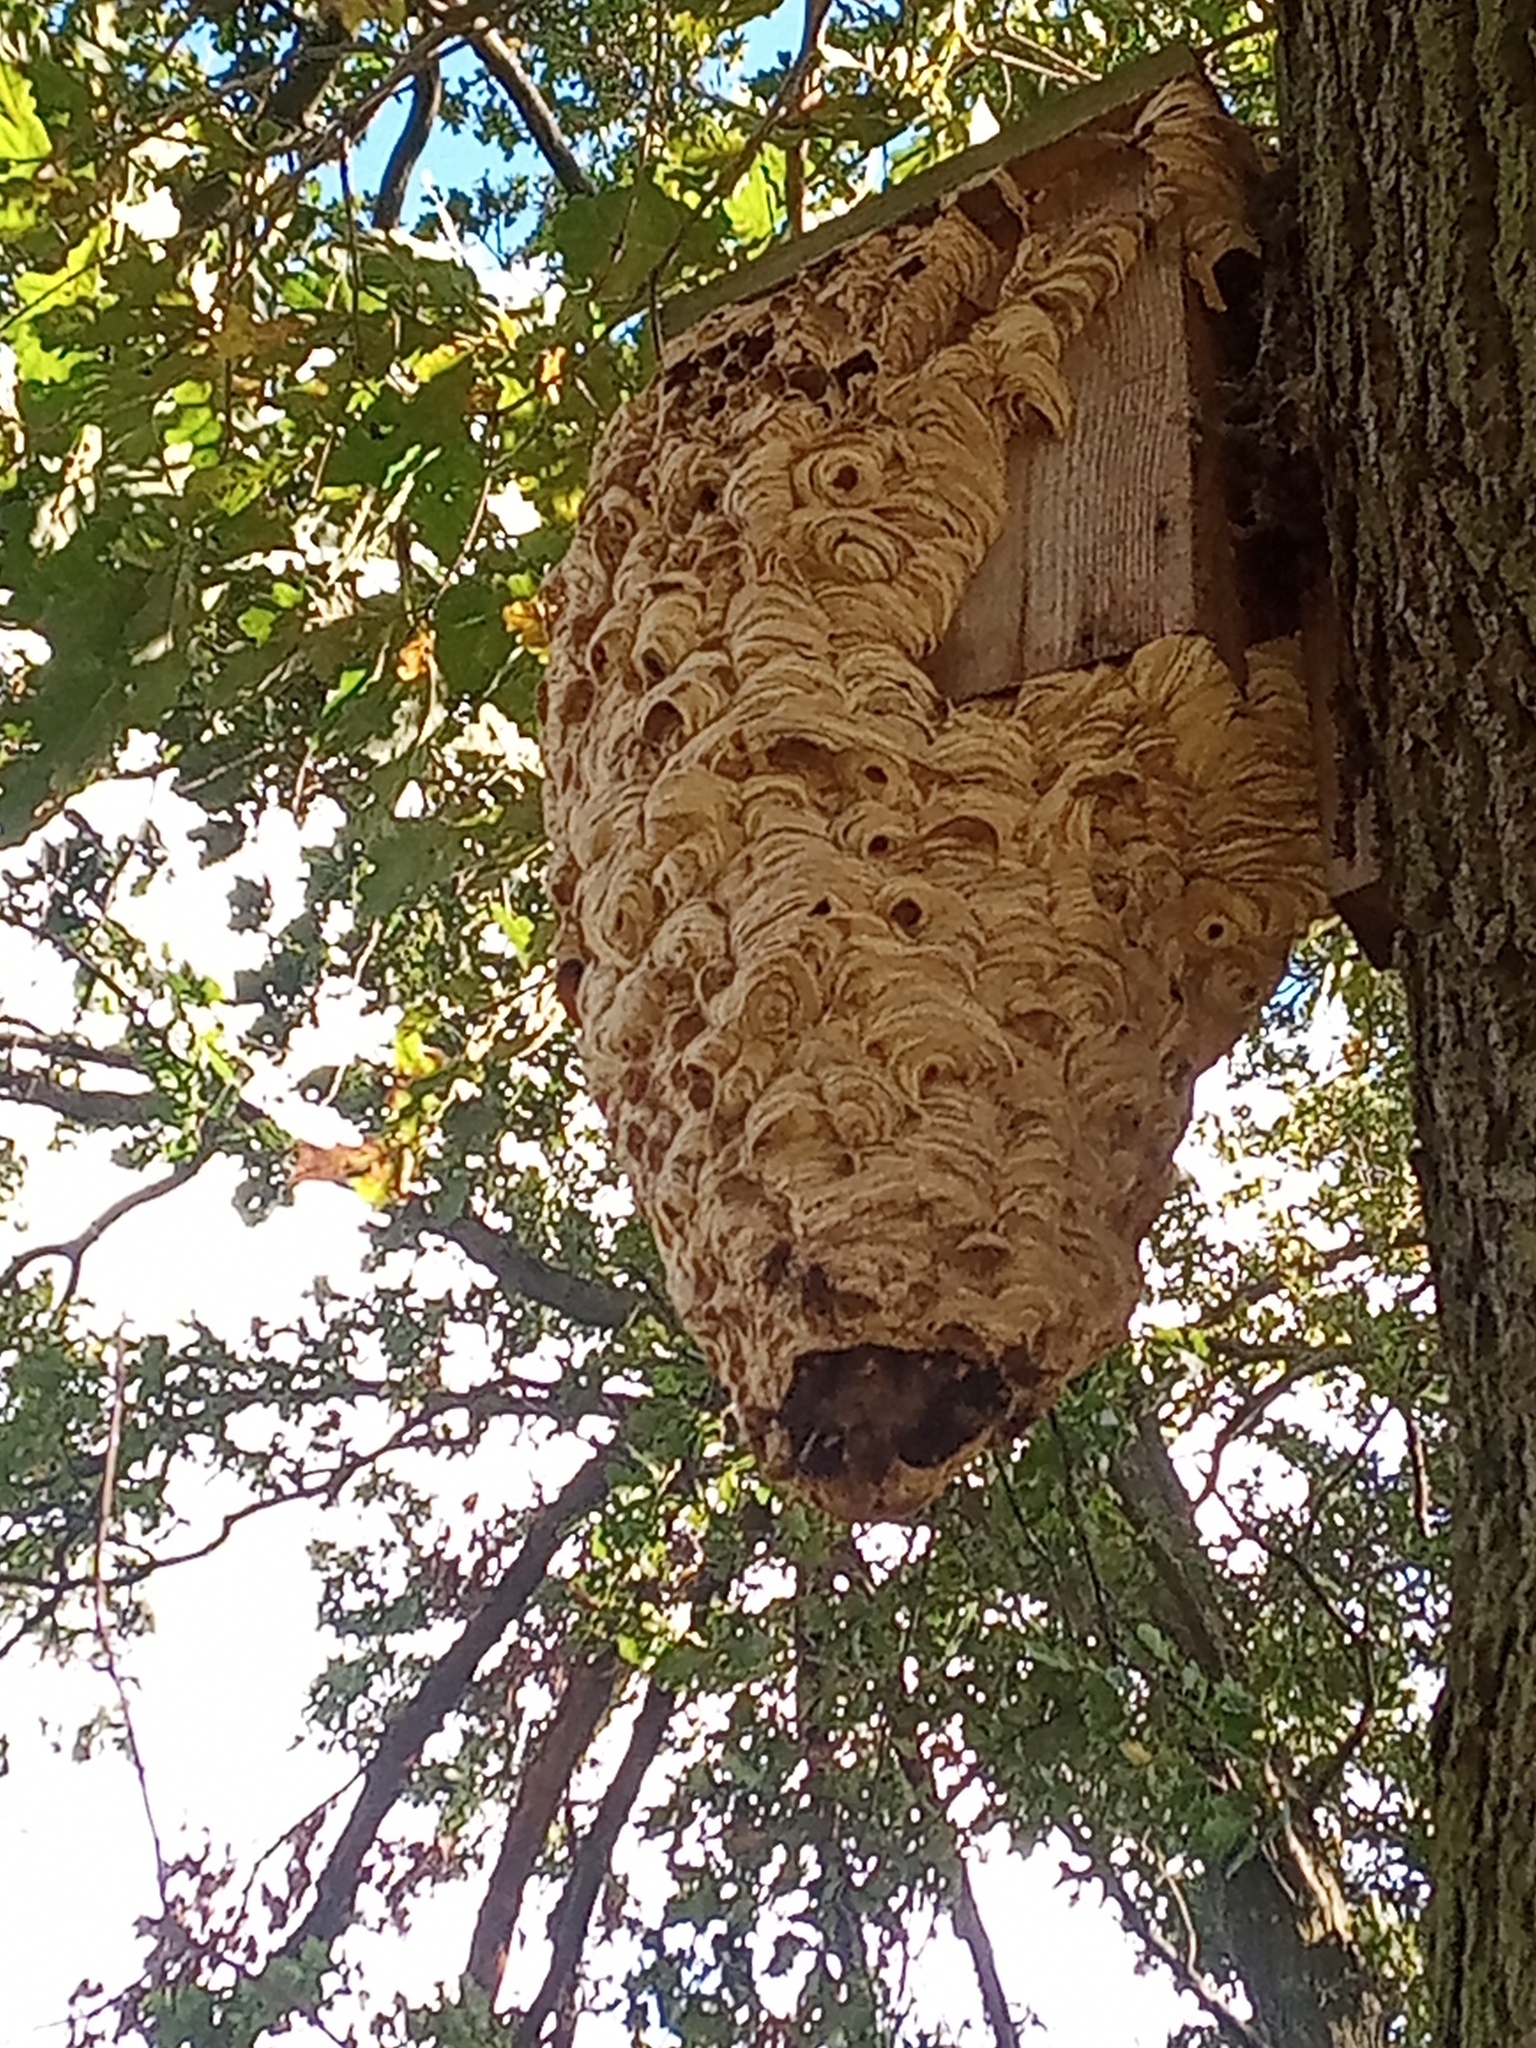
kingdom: Animalia
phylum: Arthropoda
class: Insecta
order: Hymenoptera
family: Vespidae
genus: Vespa
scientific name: Vespa crabro
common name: Hornet
